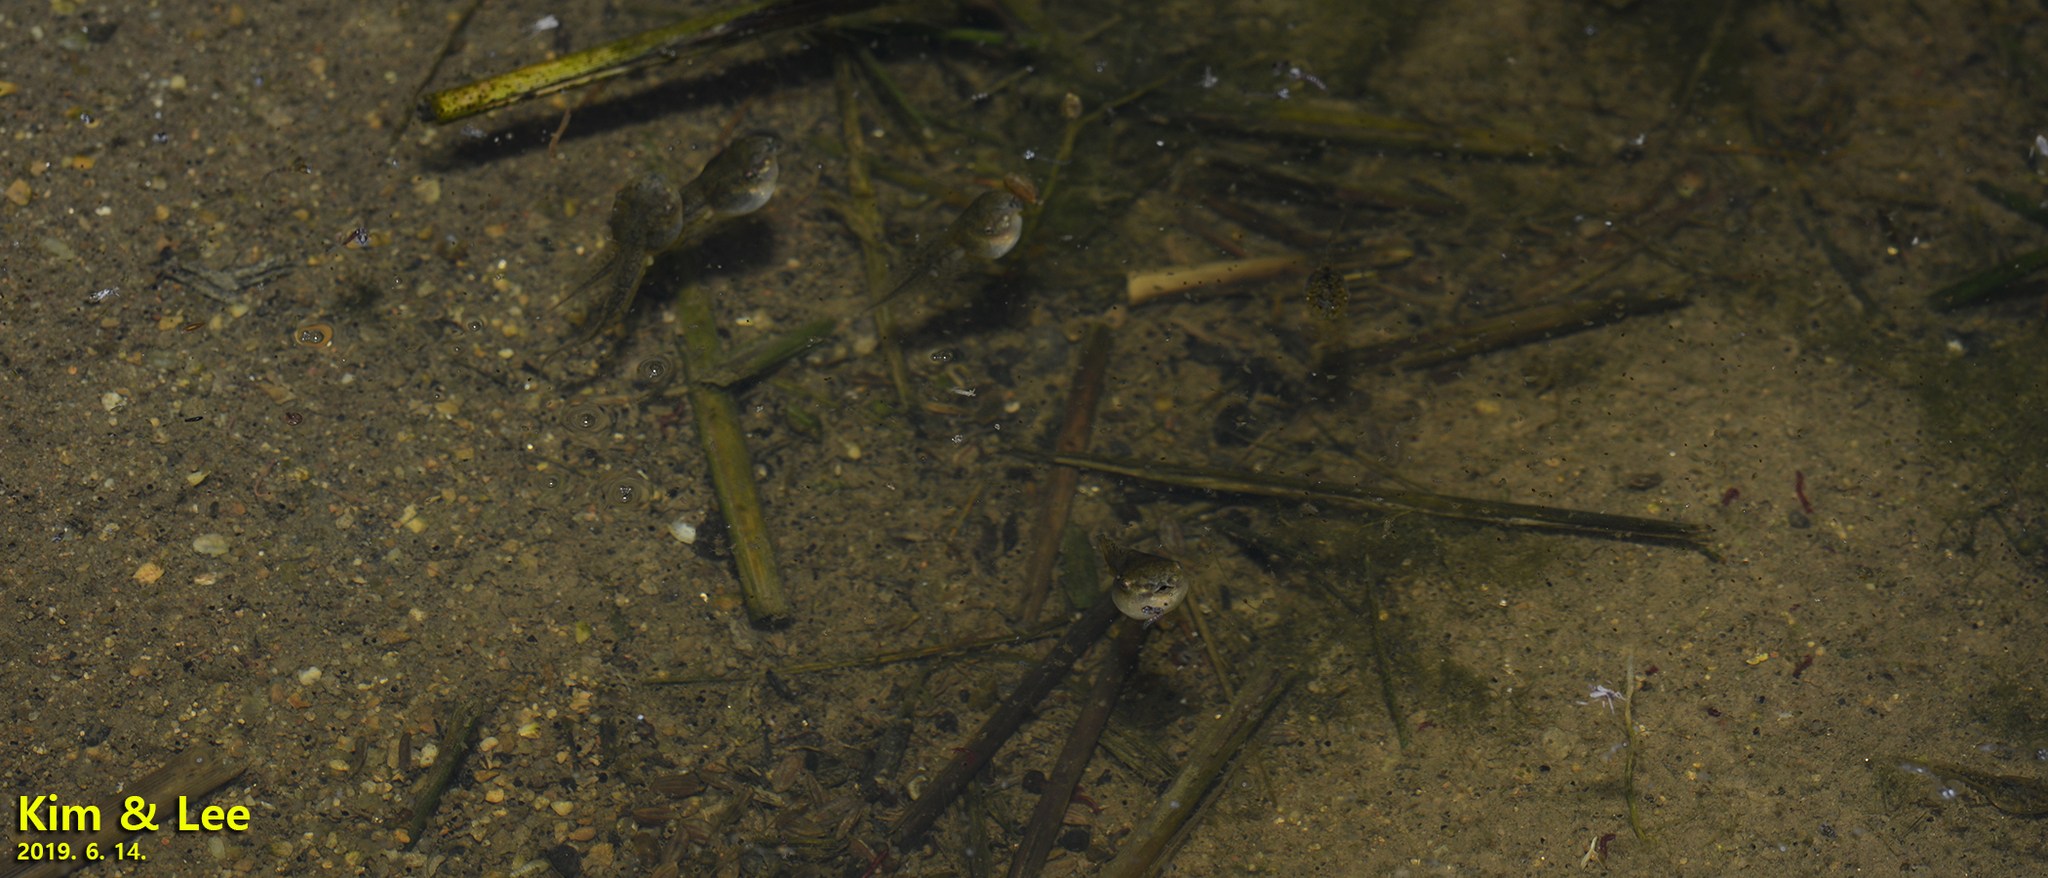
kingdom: Animalia
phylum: Chordata
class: Amphibia
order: Anura
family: Hylidae
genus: Dryophytes
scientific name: Dryophytes japonicus
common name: Japanese treefrog
